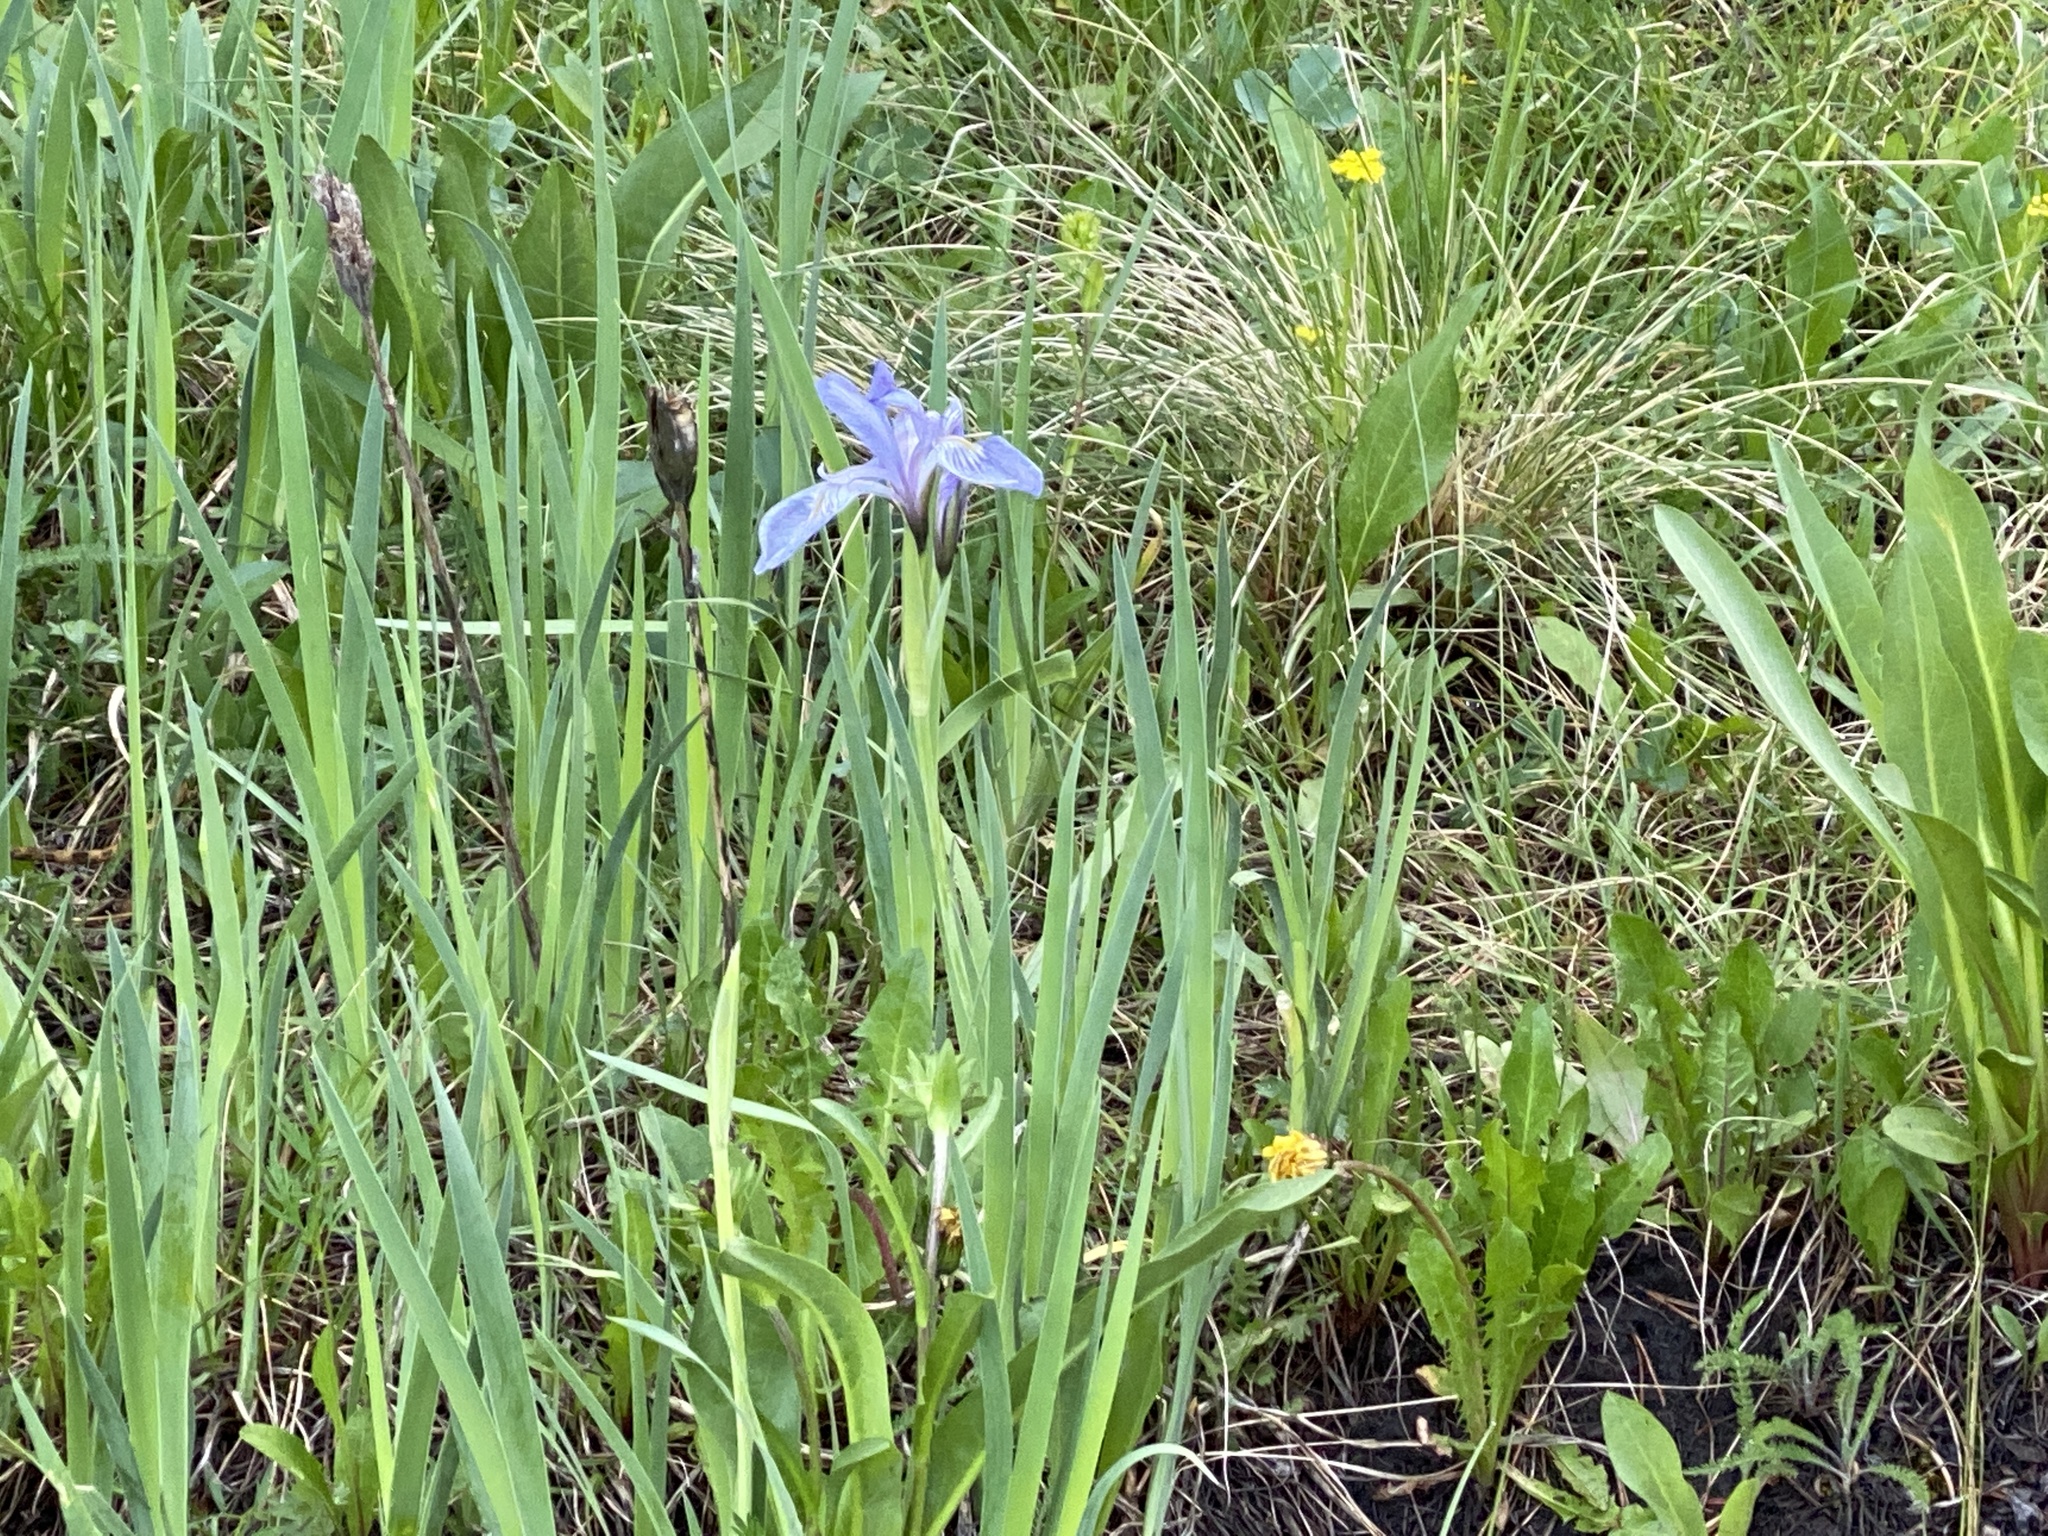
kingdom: Plantae
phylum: Tracheophyta
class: Liliopsida
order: Asparagales
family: Iridaceae
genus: Iris
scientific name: Iris missouriensis
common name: Rocky mountain iris
